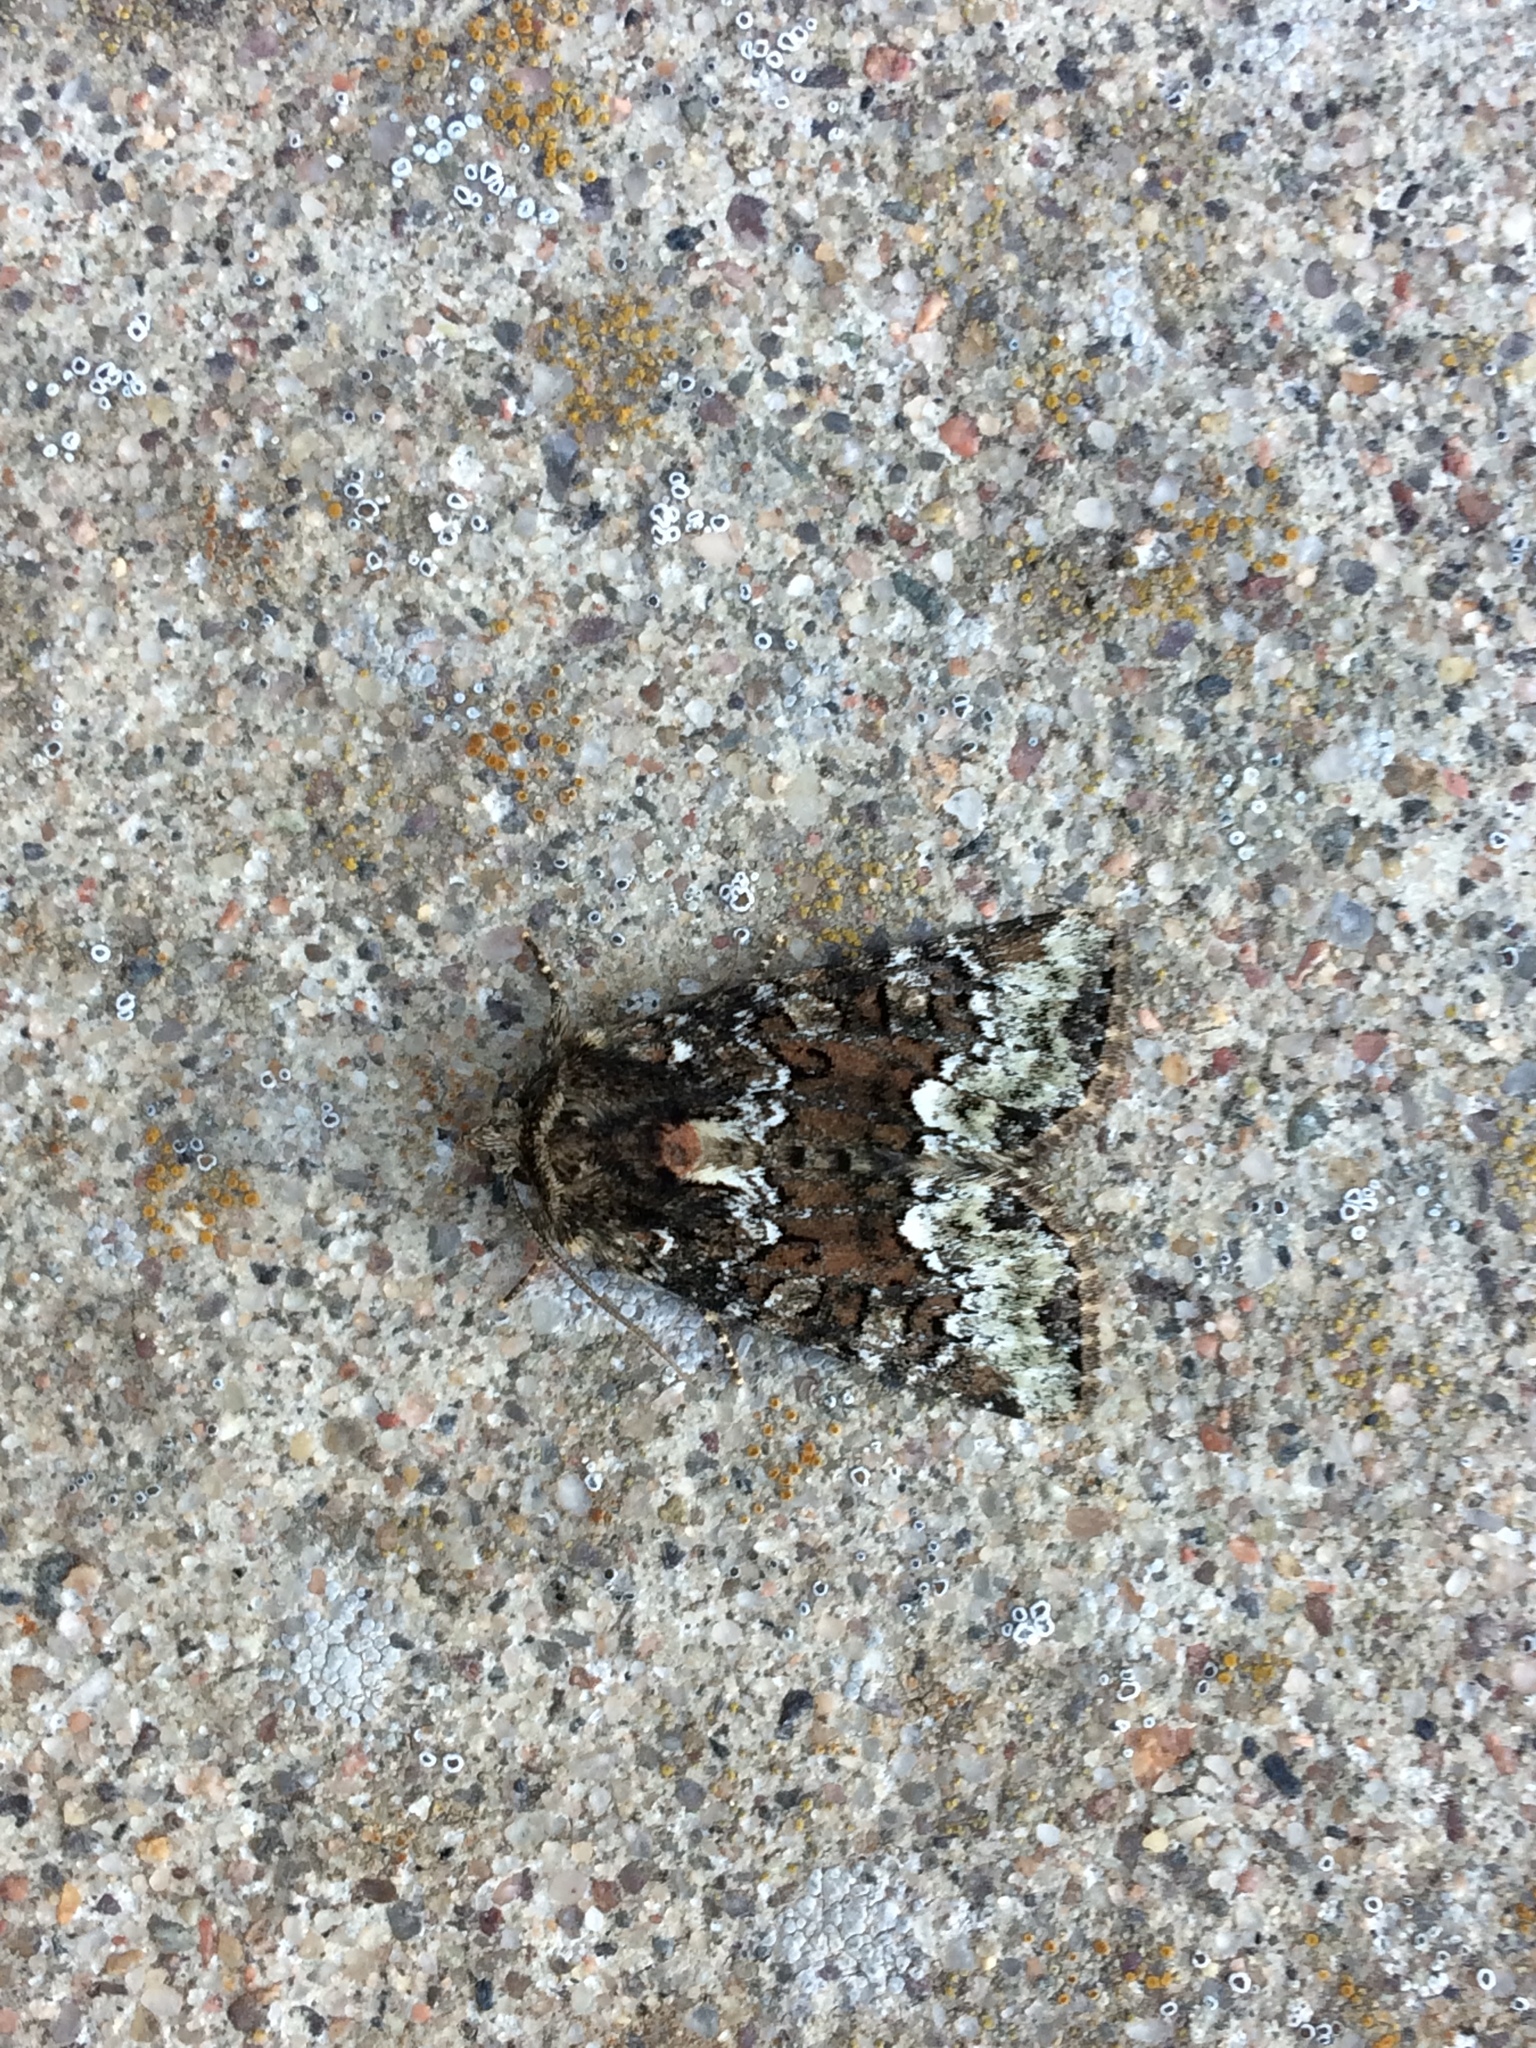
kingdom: Animalia
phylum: Arthropoda
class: Insecta
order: Lepidoptera
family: Noctuidae
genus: Oligia
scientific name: Oligia strigilis
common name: Marbled minor
